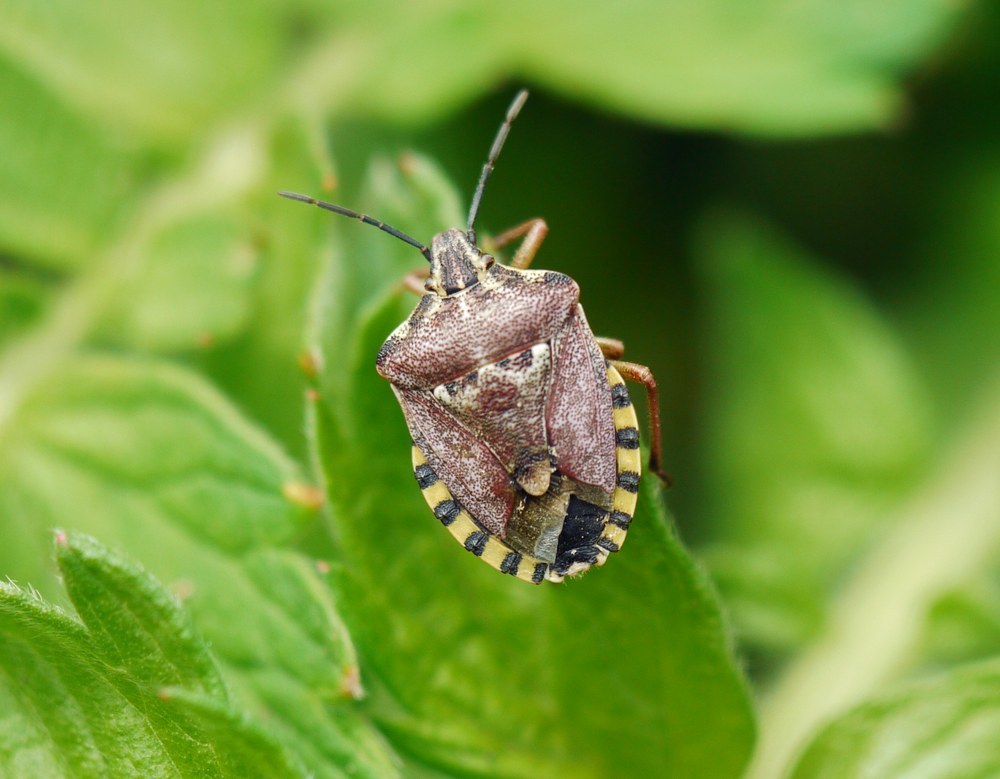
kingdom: Animalia
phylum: Arthropoda
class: Insecta
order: Hemiptera
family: Miridae
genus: Orthops
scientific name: Orthops kalmii
